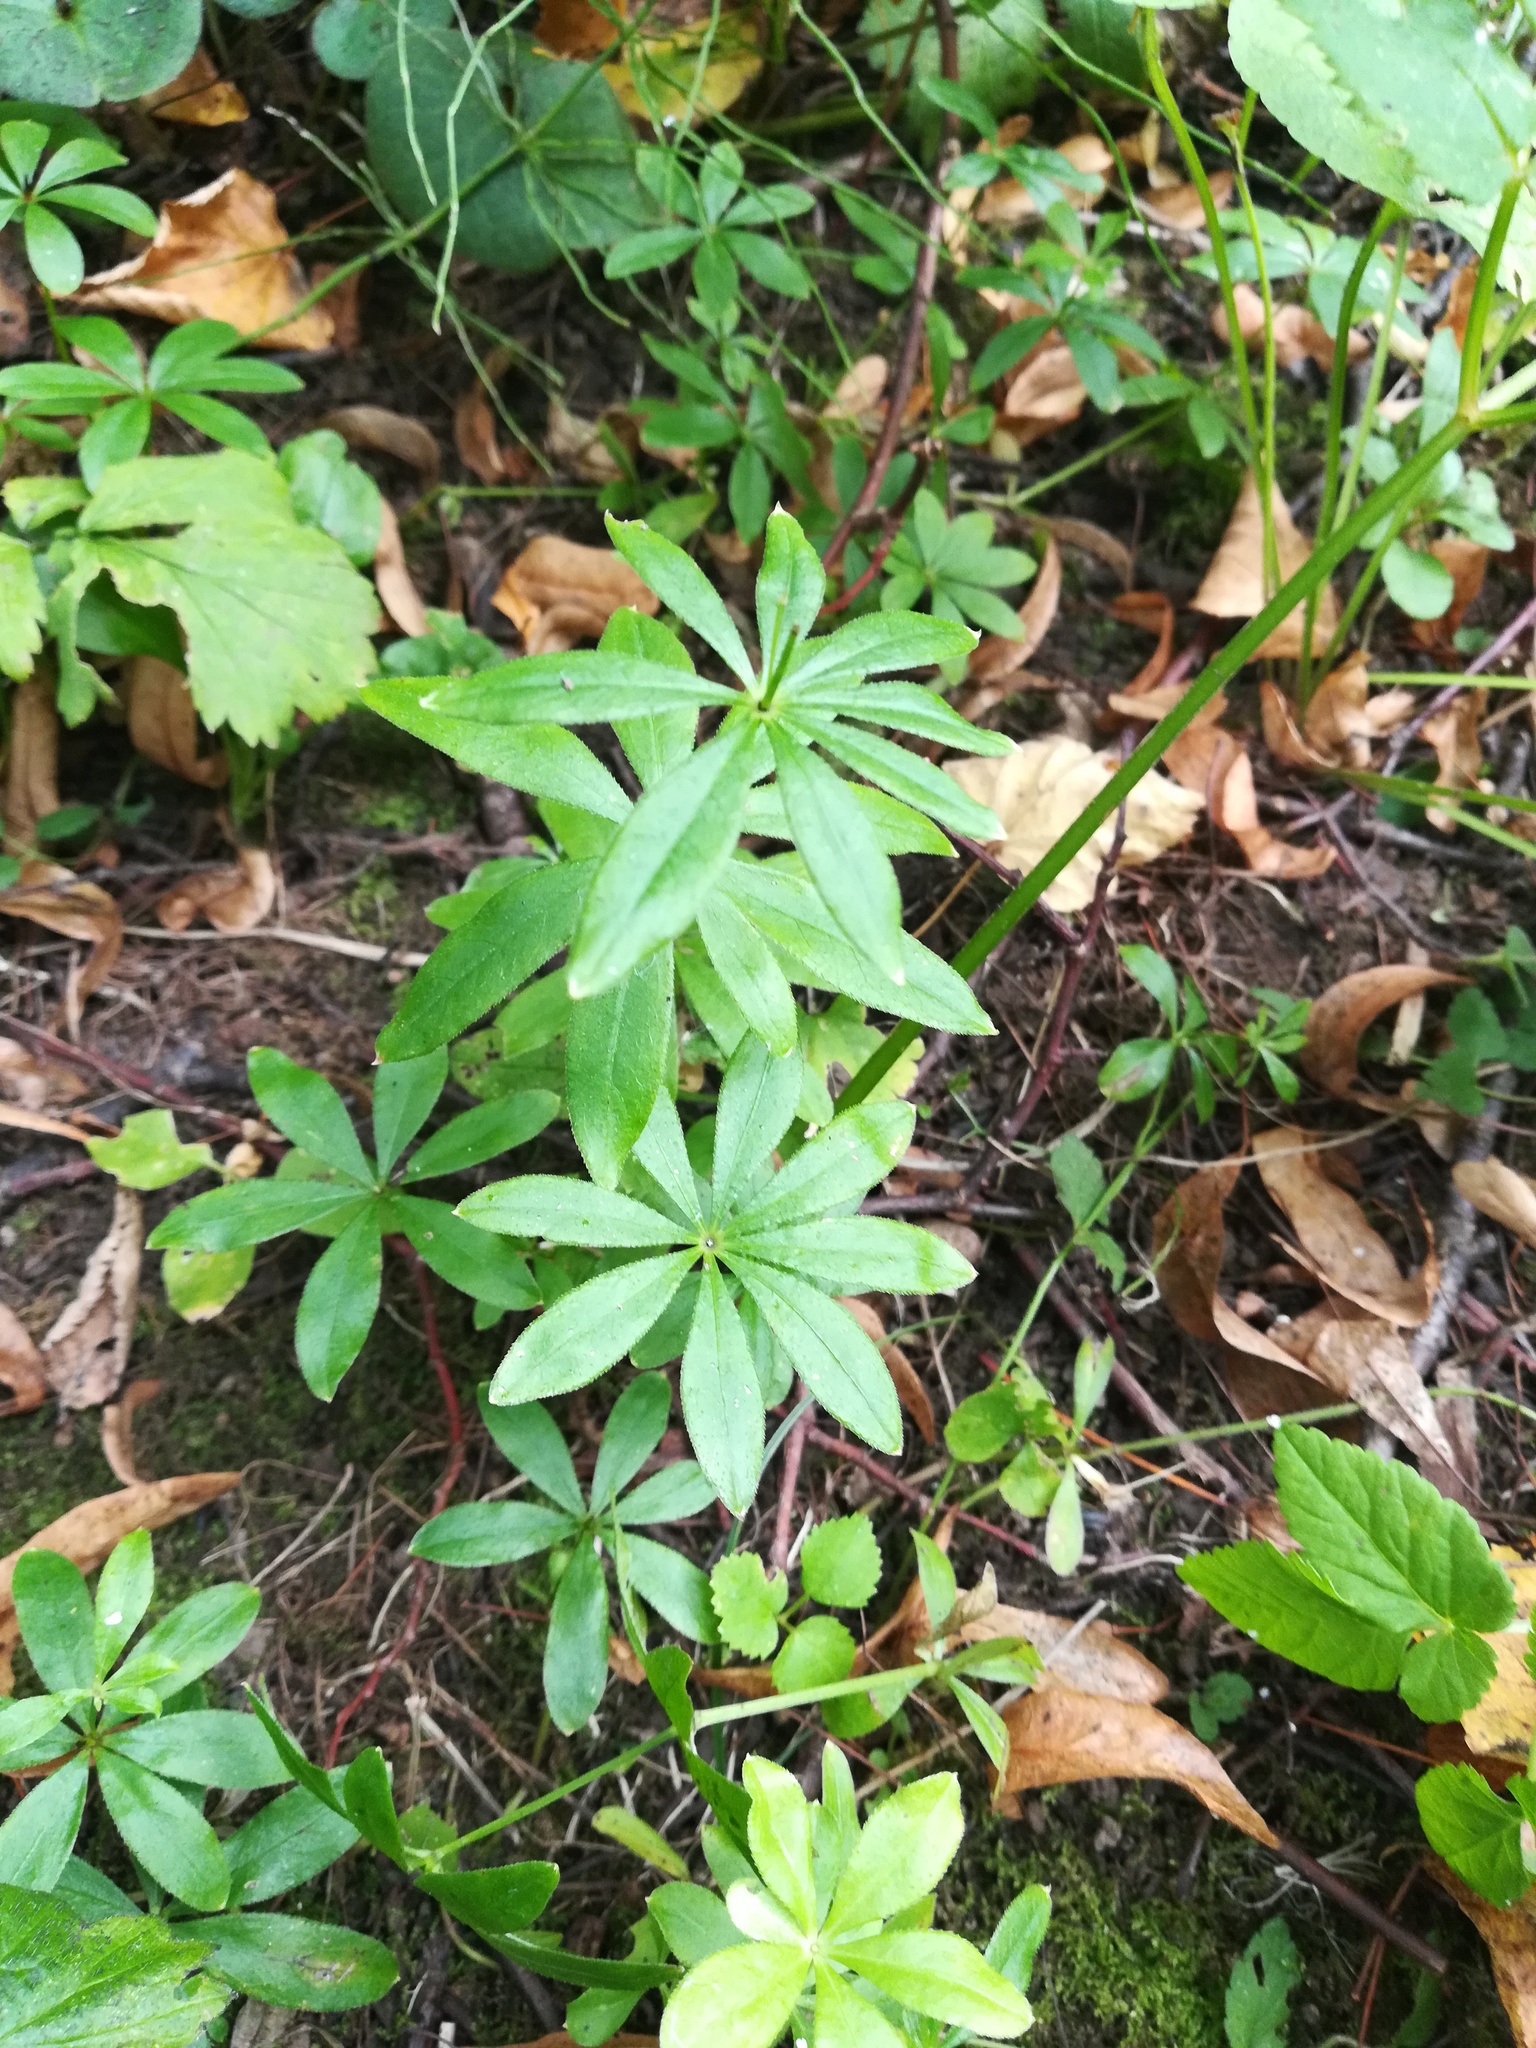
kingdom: Plantae
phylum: Tracheophyta
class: Magnoliopsida
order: Gentianales
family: Rubiaceae
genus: Galium
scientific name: Galium odoratum
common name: Sweet woodruff
